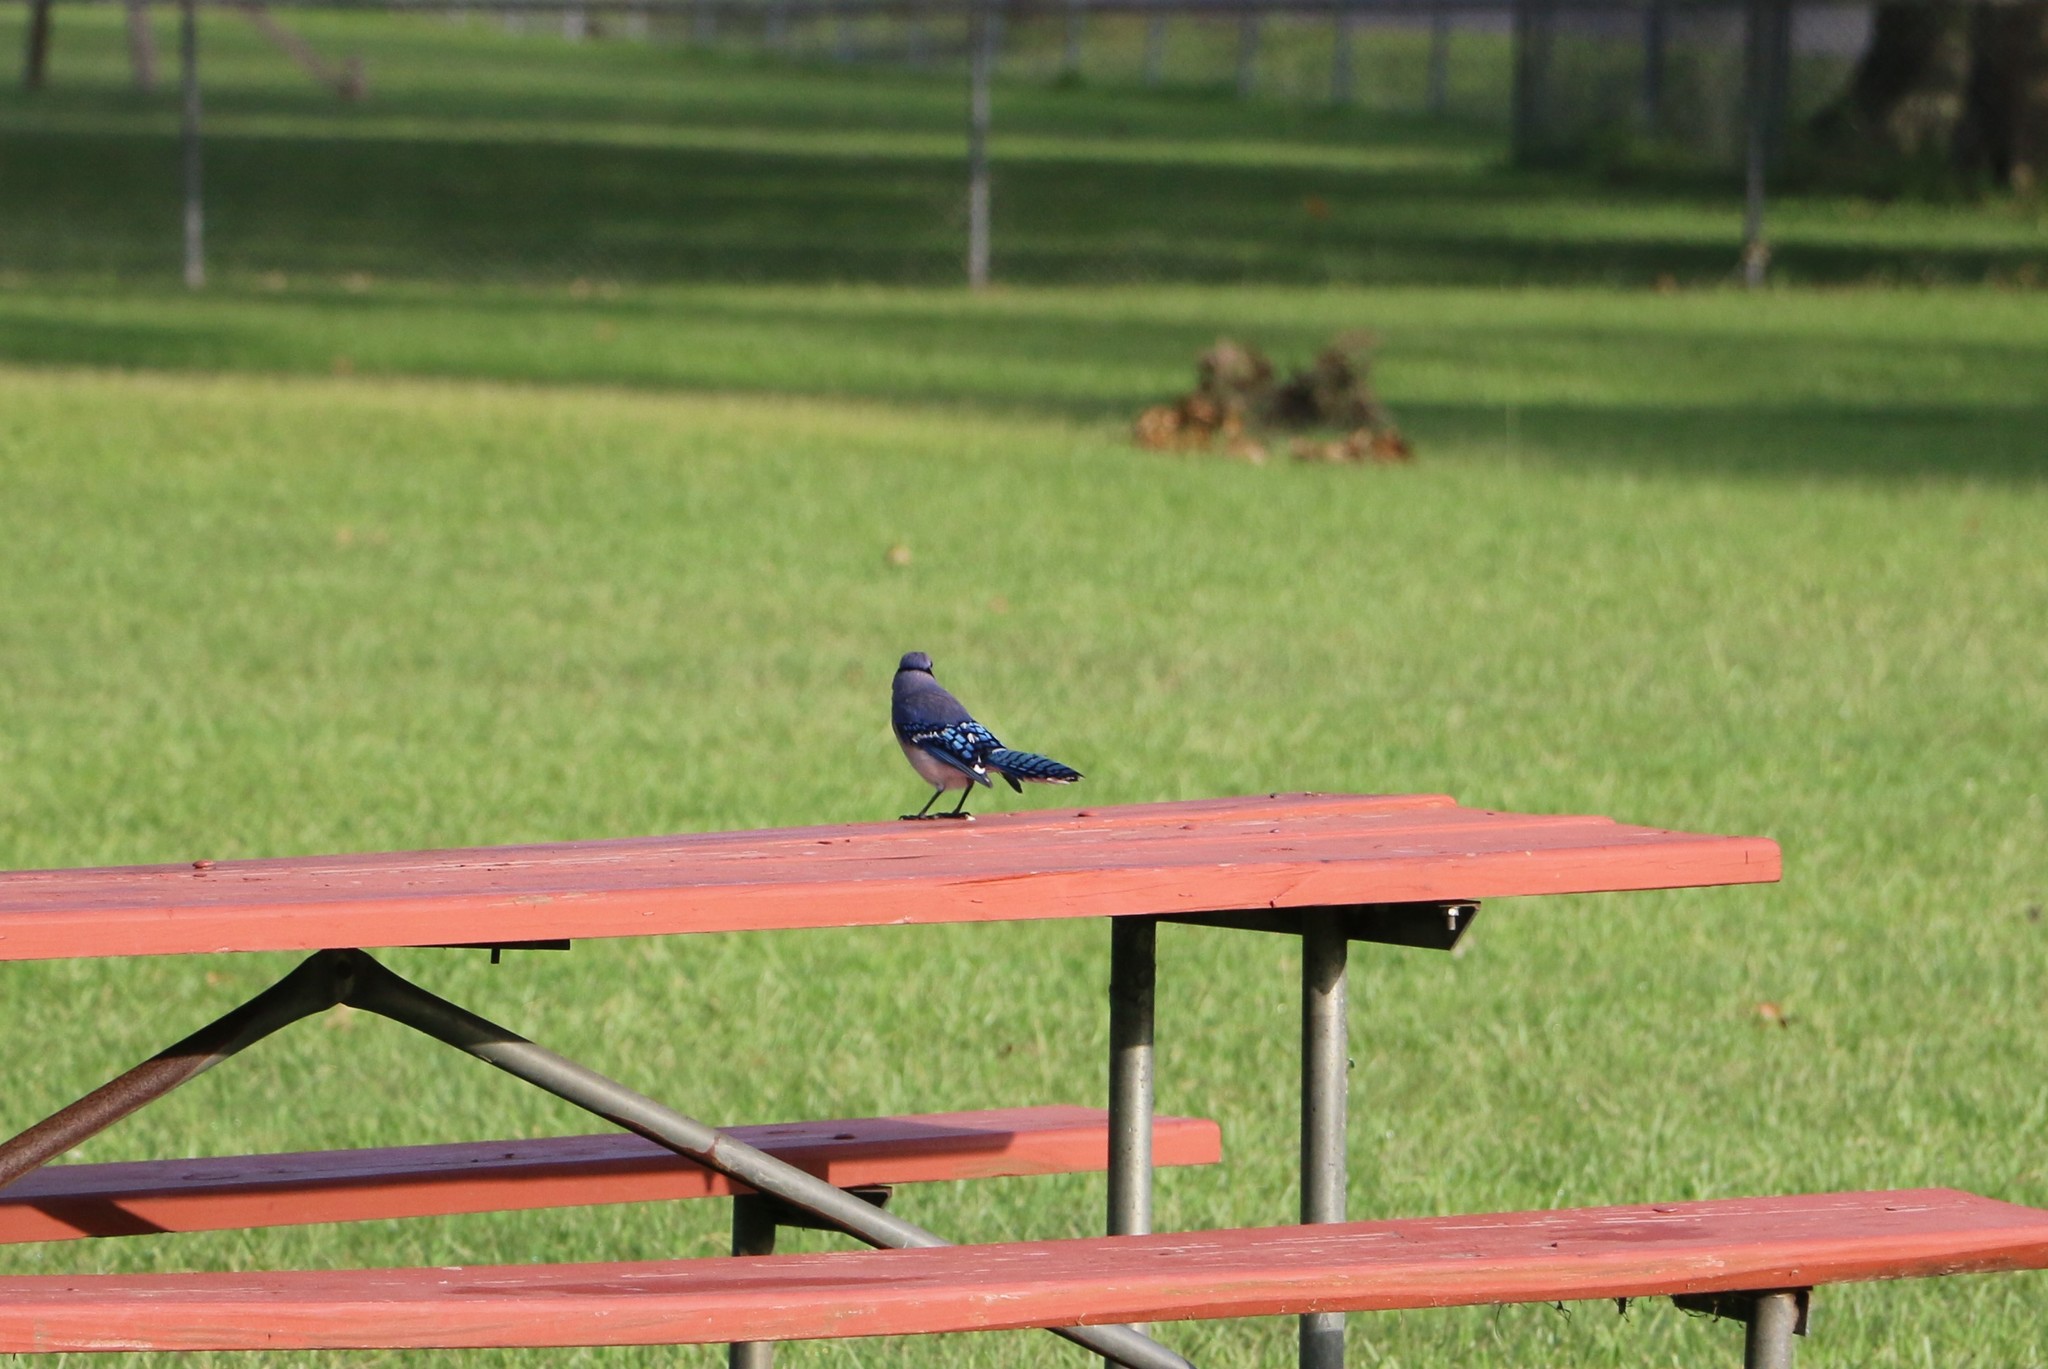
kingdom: Animalia
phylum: Chordata
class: Aves
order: Passeriformes
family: Corvidae
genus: Cyanocitta
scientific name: Cyanocitta cristata
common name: Blue jay
